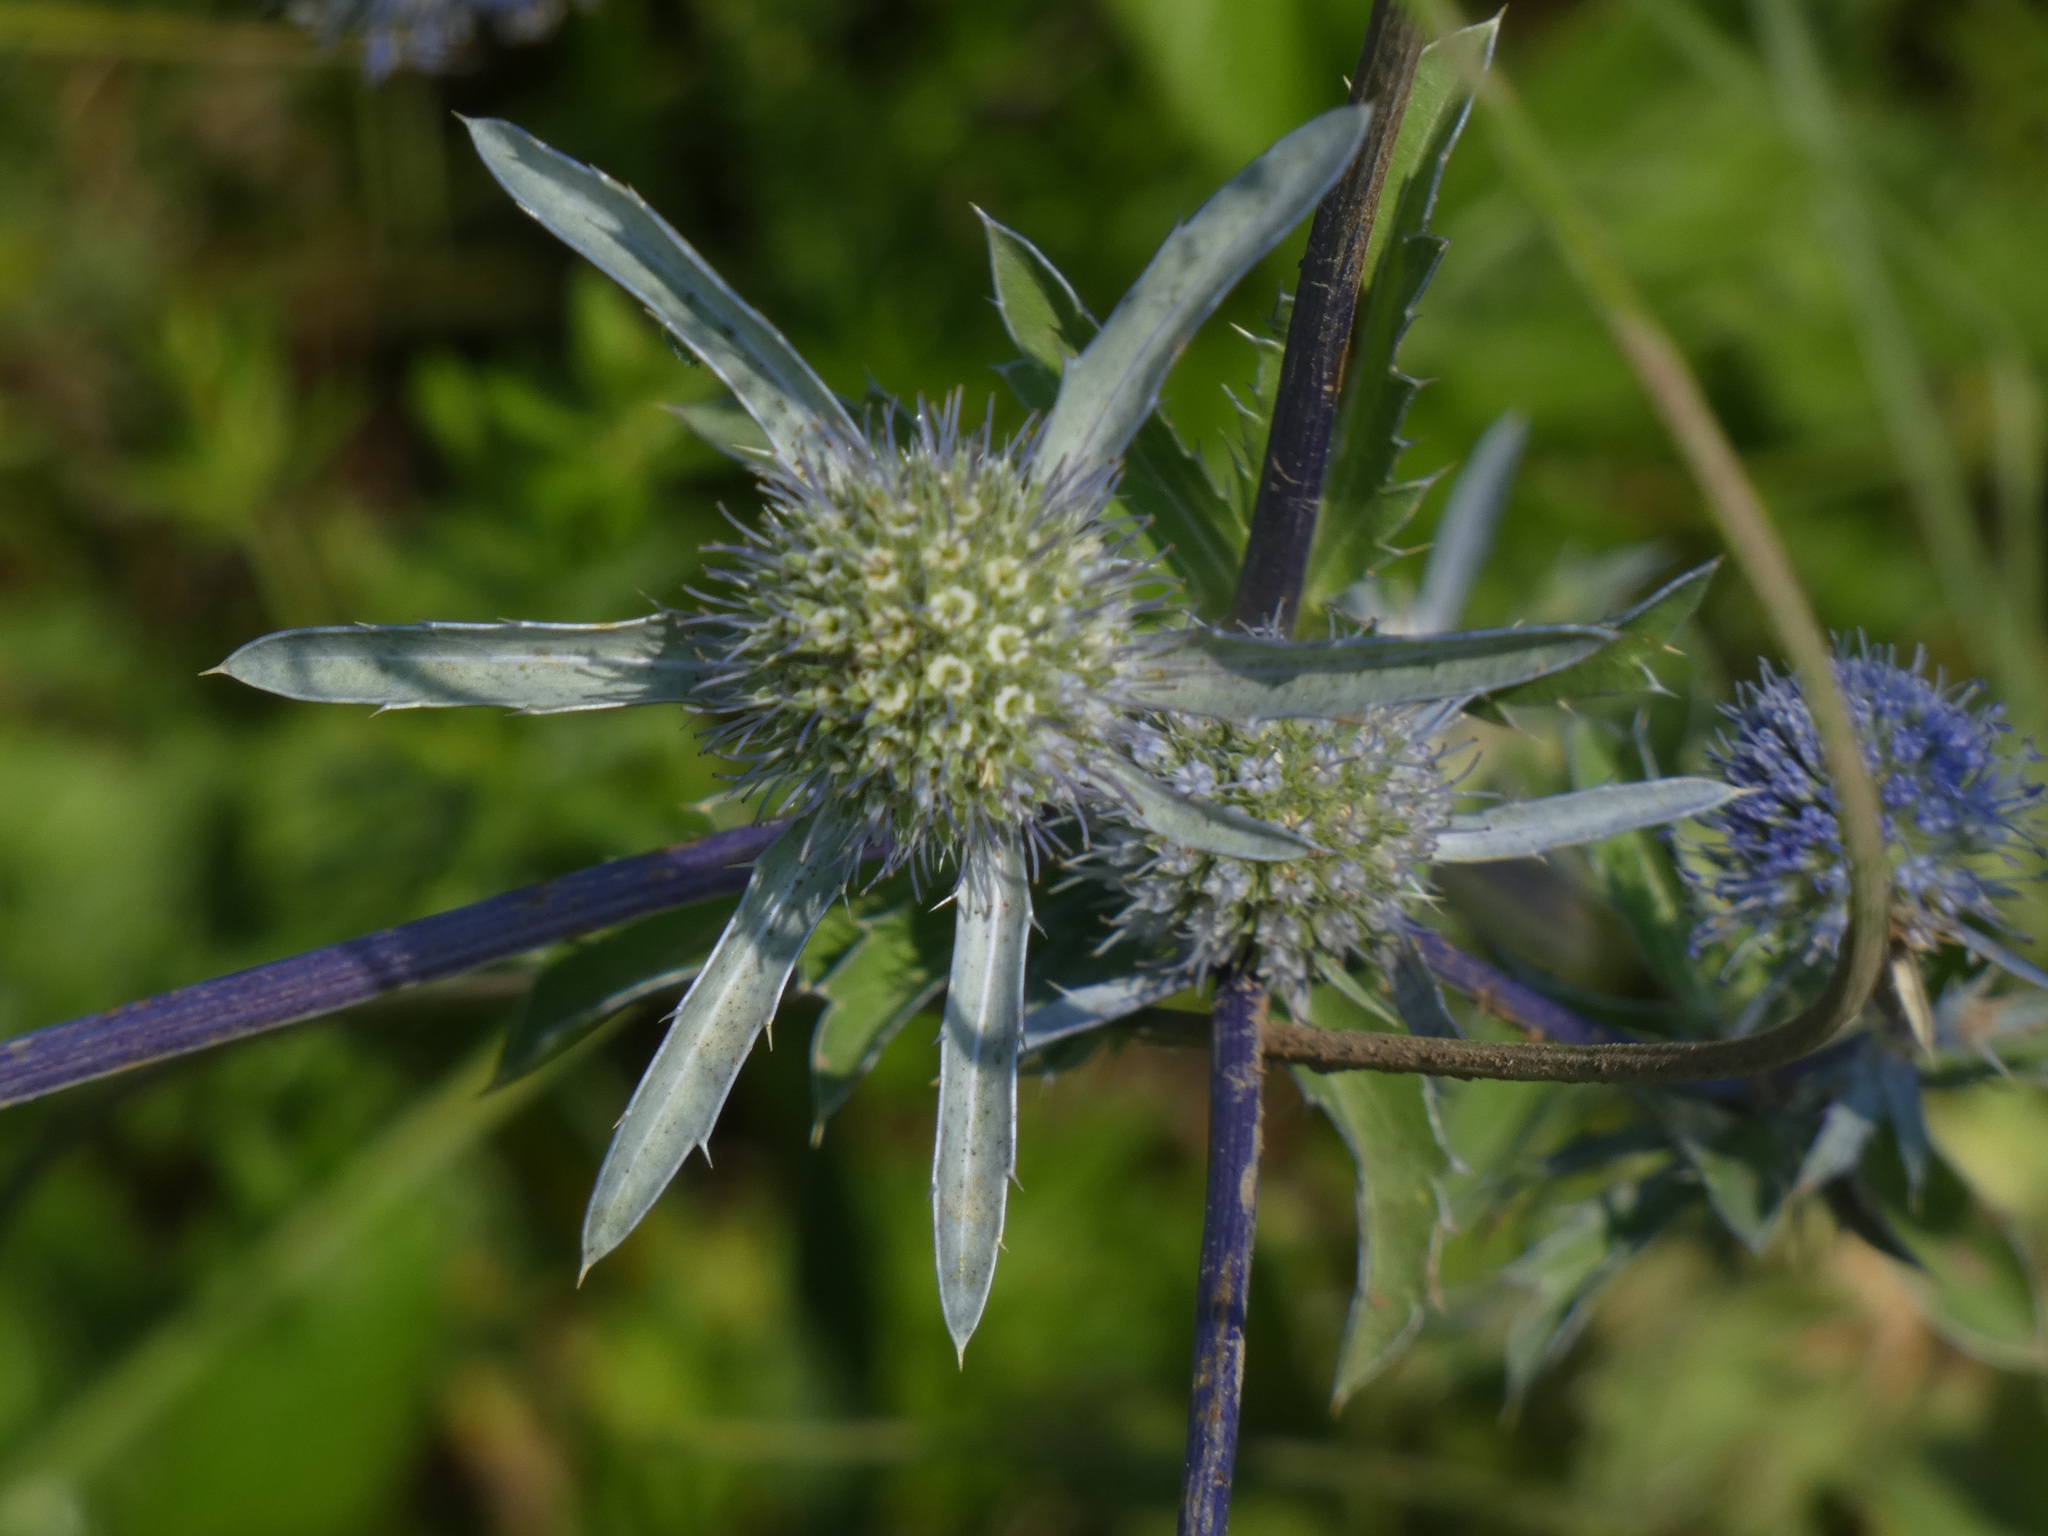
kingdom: Plantae
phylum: Tracheophyta
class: Magnoliopsida
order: Apiales
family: Apiaceae
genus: Eryngium
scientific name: Eryngium planum
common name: Blue eryngo
